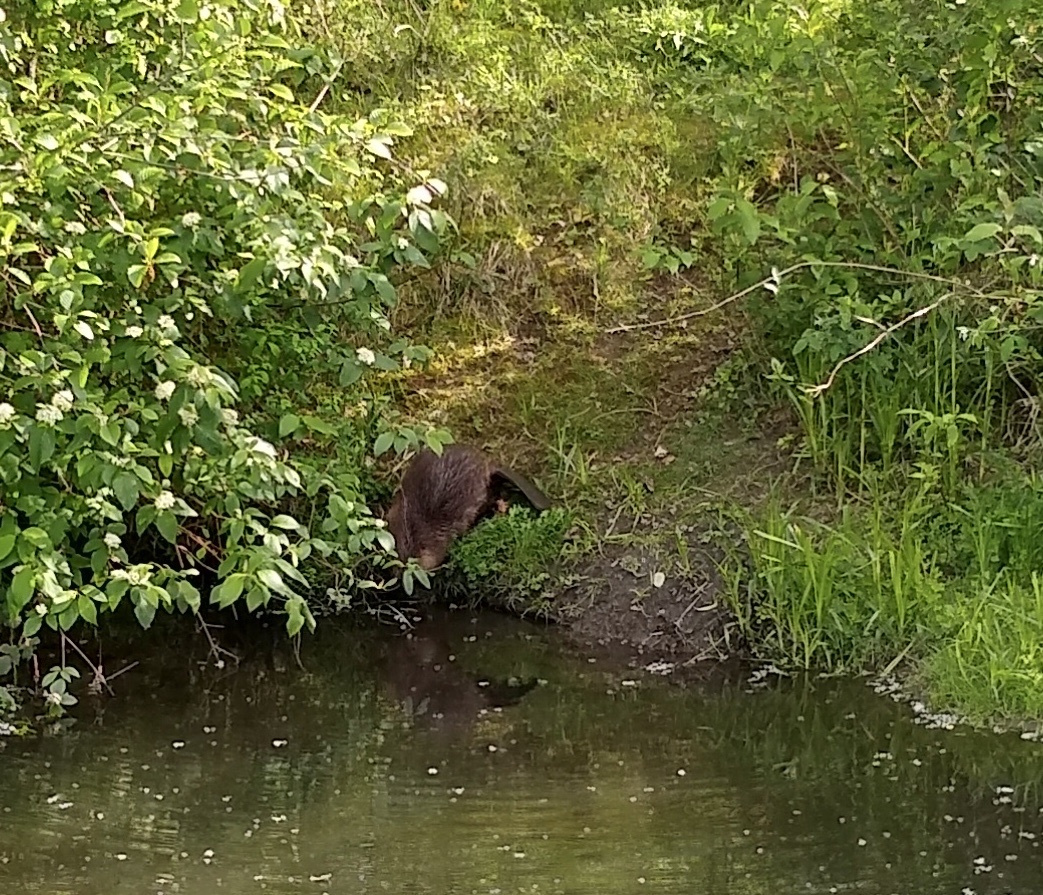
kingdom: Animalia
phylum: Chordata
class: Mammalia
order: Rodentia
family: Castoridae
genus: Castor
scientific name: Castor canadensis
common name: American beaver
